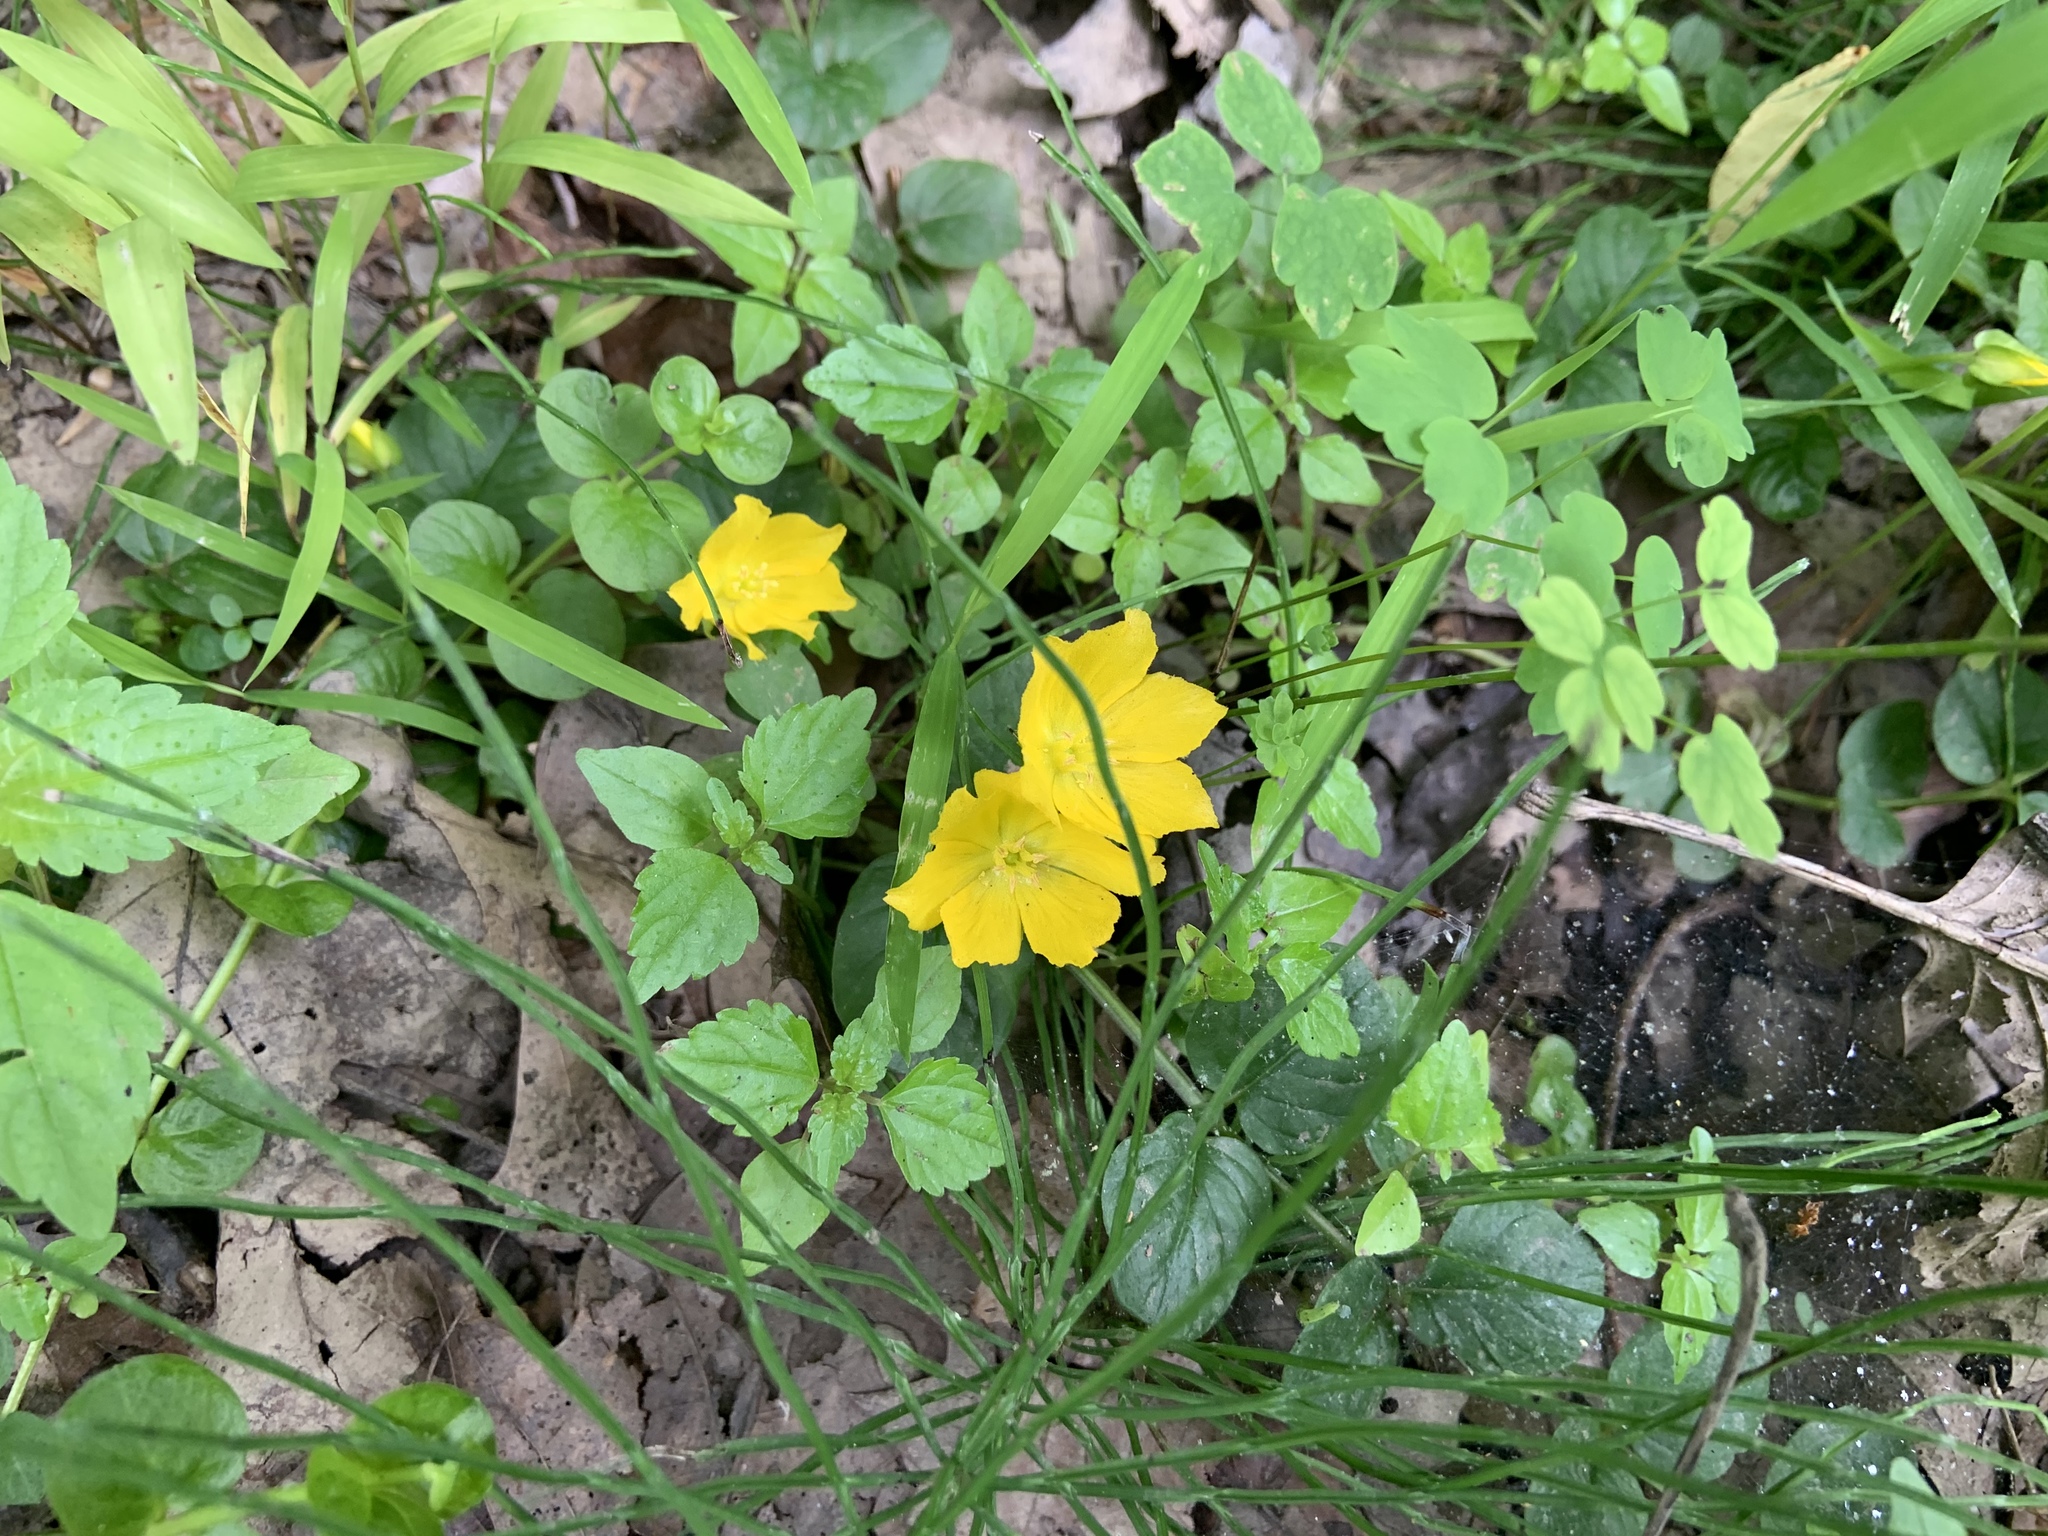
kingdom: Plantae
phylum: Tracheophyta
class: Magnoliopsida
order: Ericales
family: Primulaceae
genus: Lysimachia
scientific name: Lysimachia nummularia
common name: Moneywort
